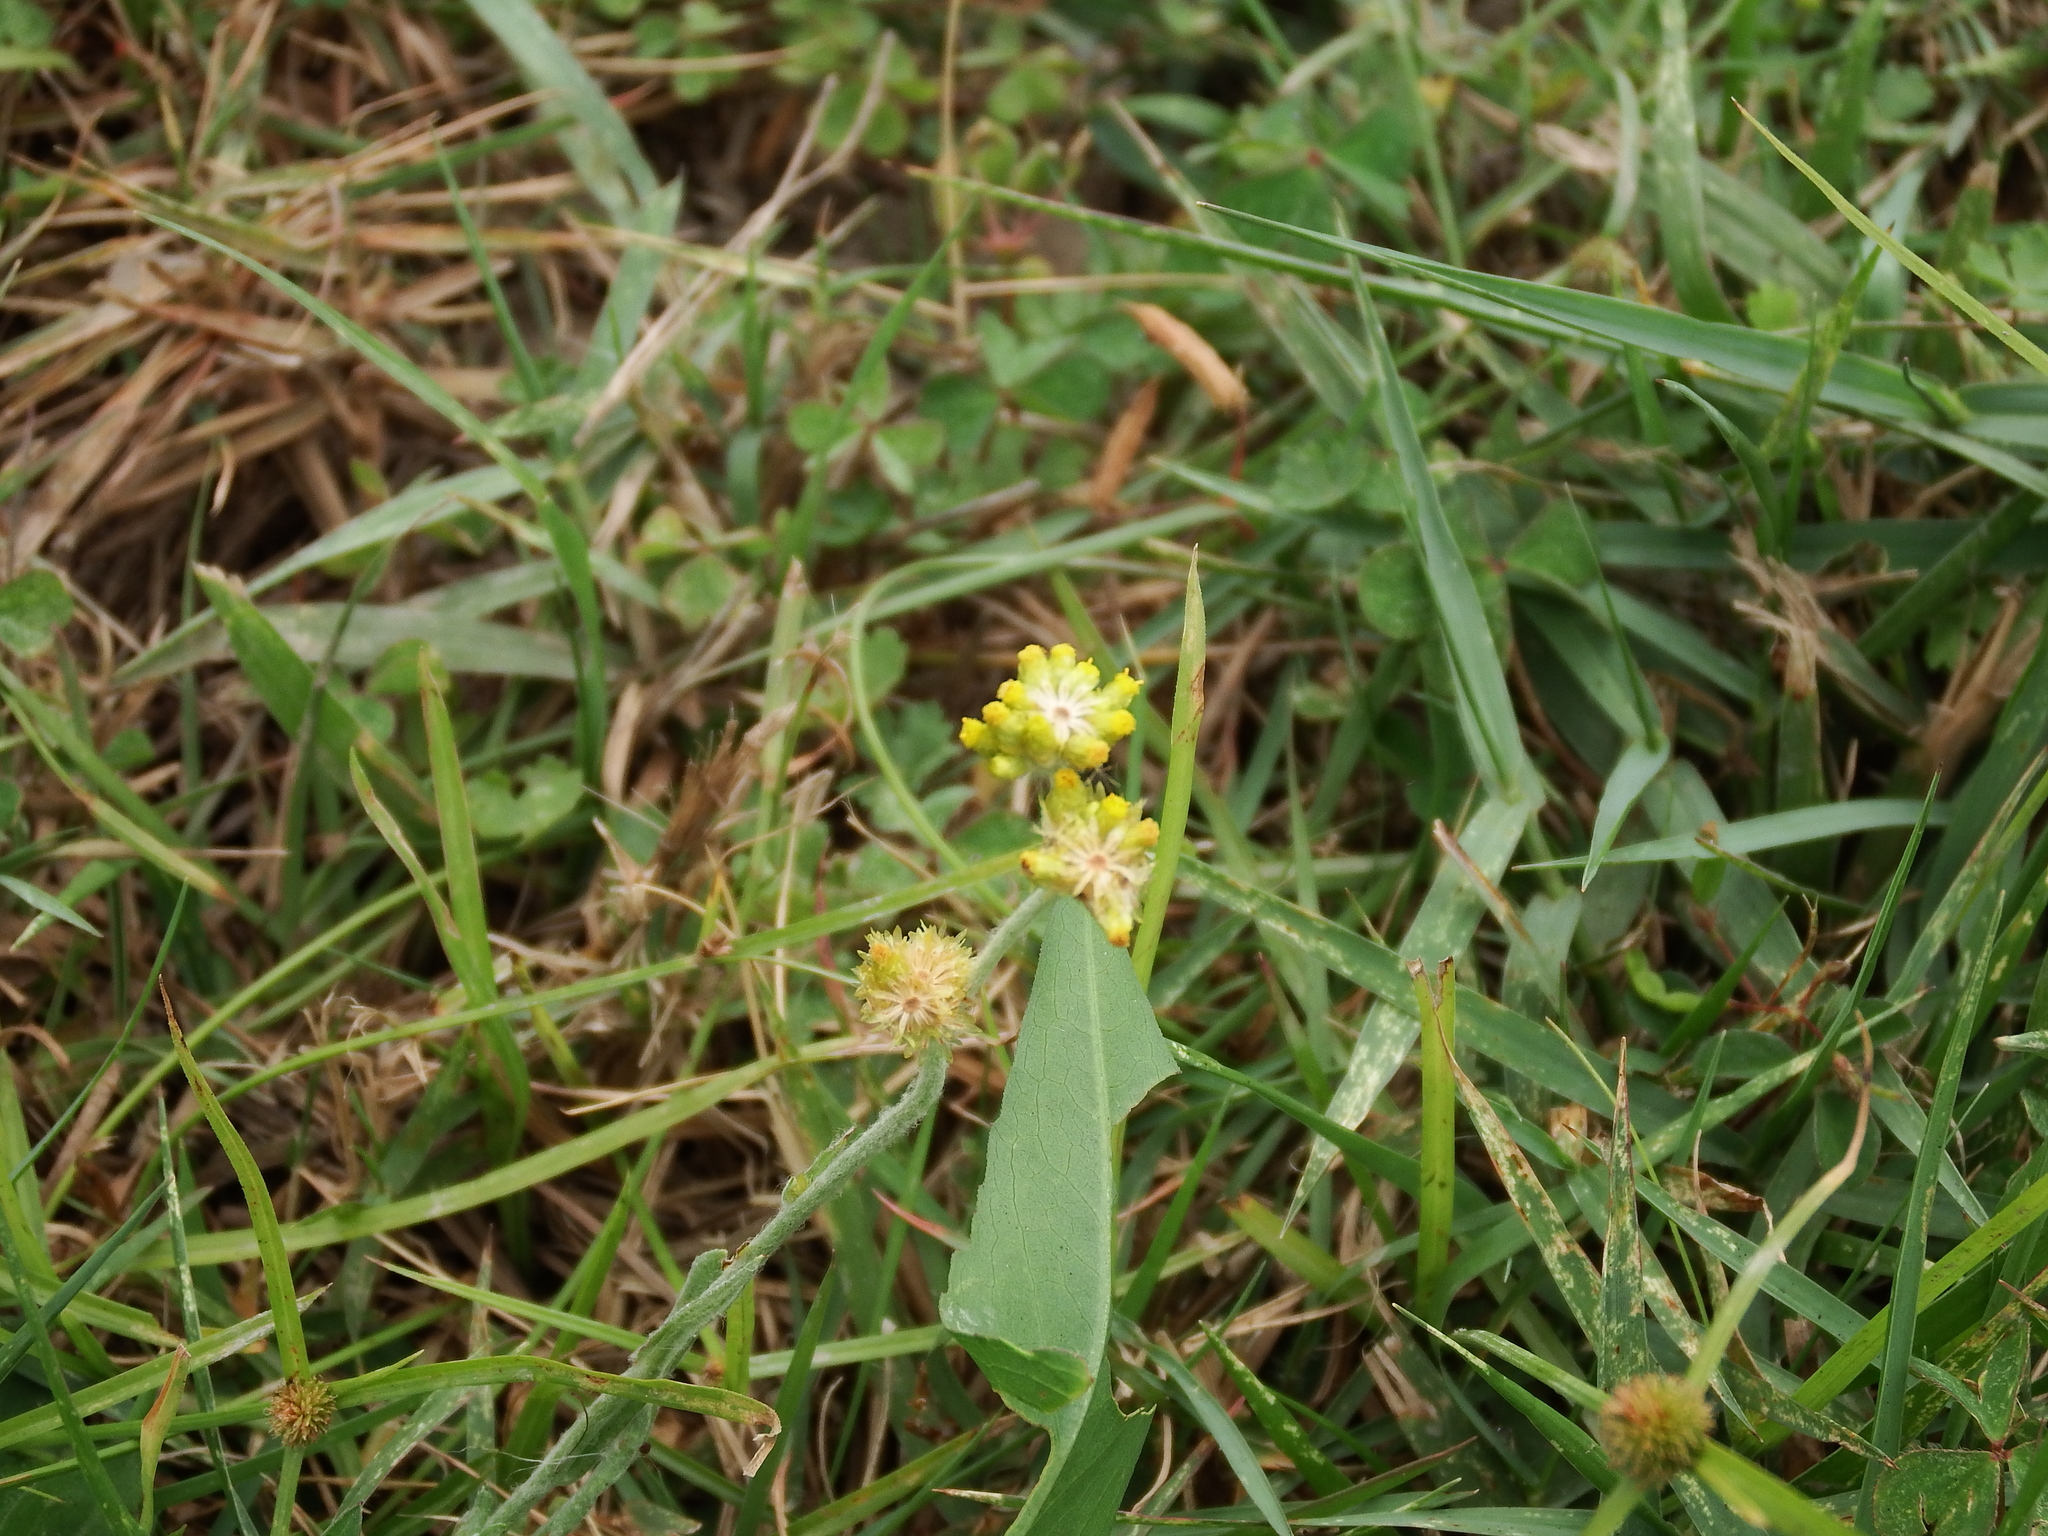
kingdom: Plantae
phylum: Tracheophyta
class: Magnoliopsida
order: Asterales
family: Asteraceae
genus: Pseudognaphalium
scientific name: Pseudognaphalium affine
